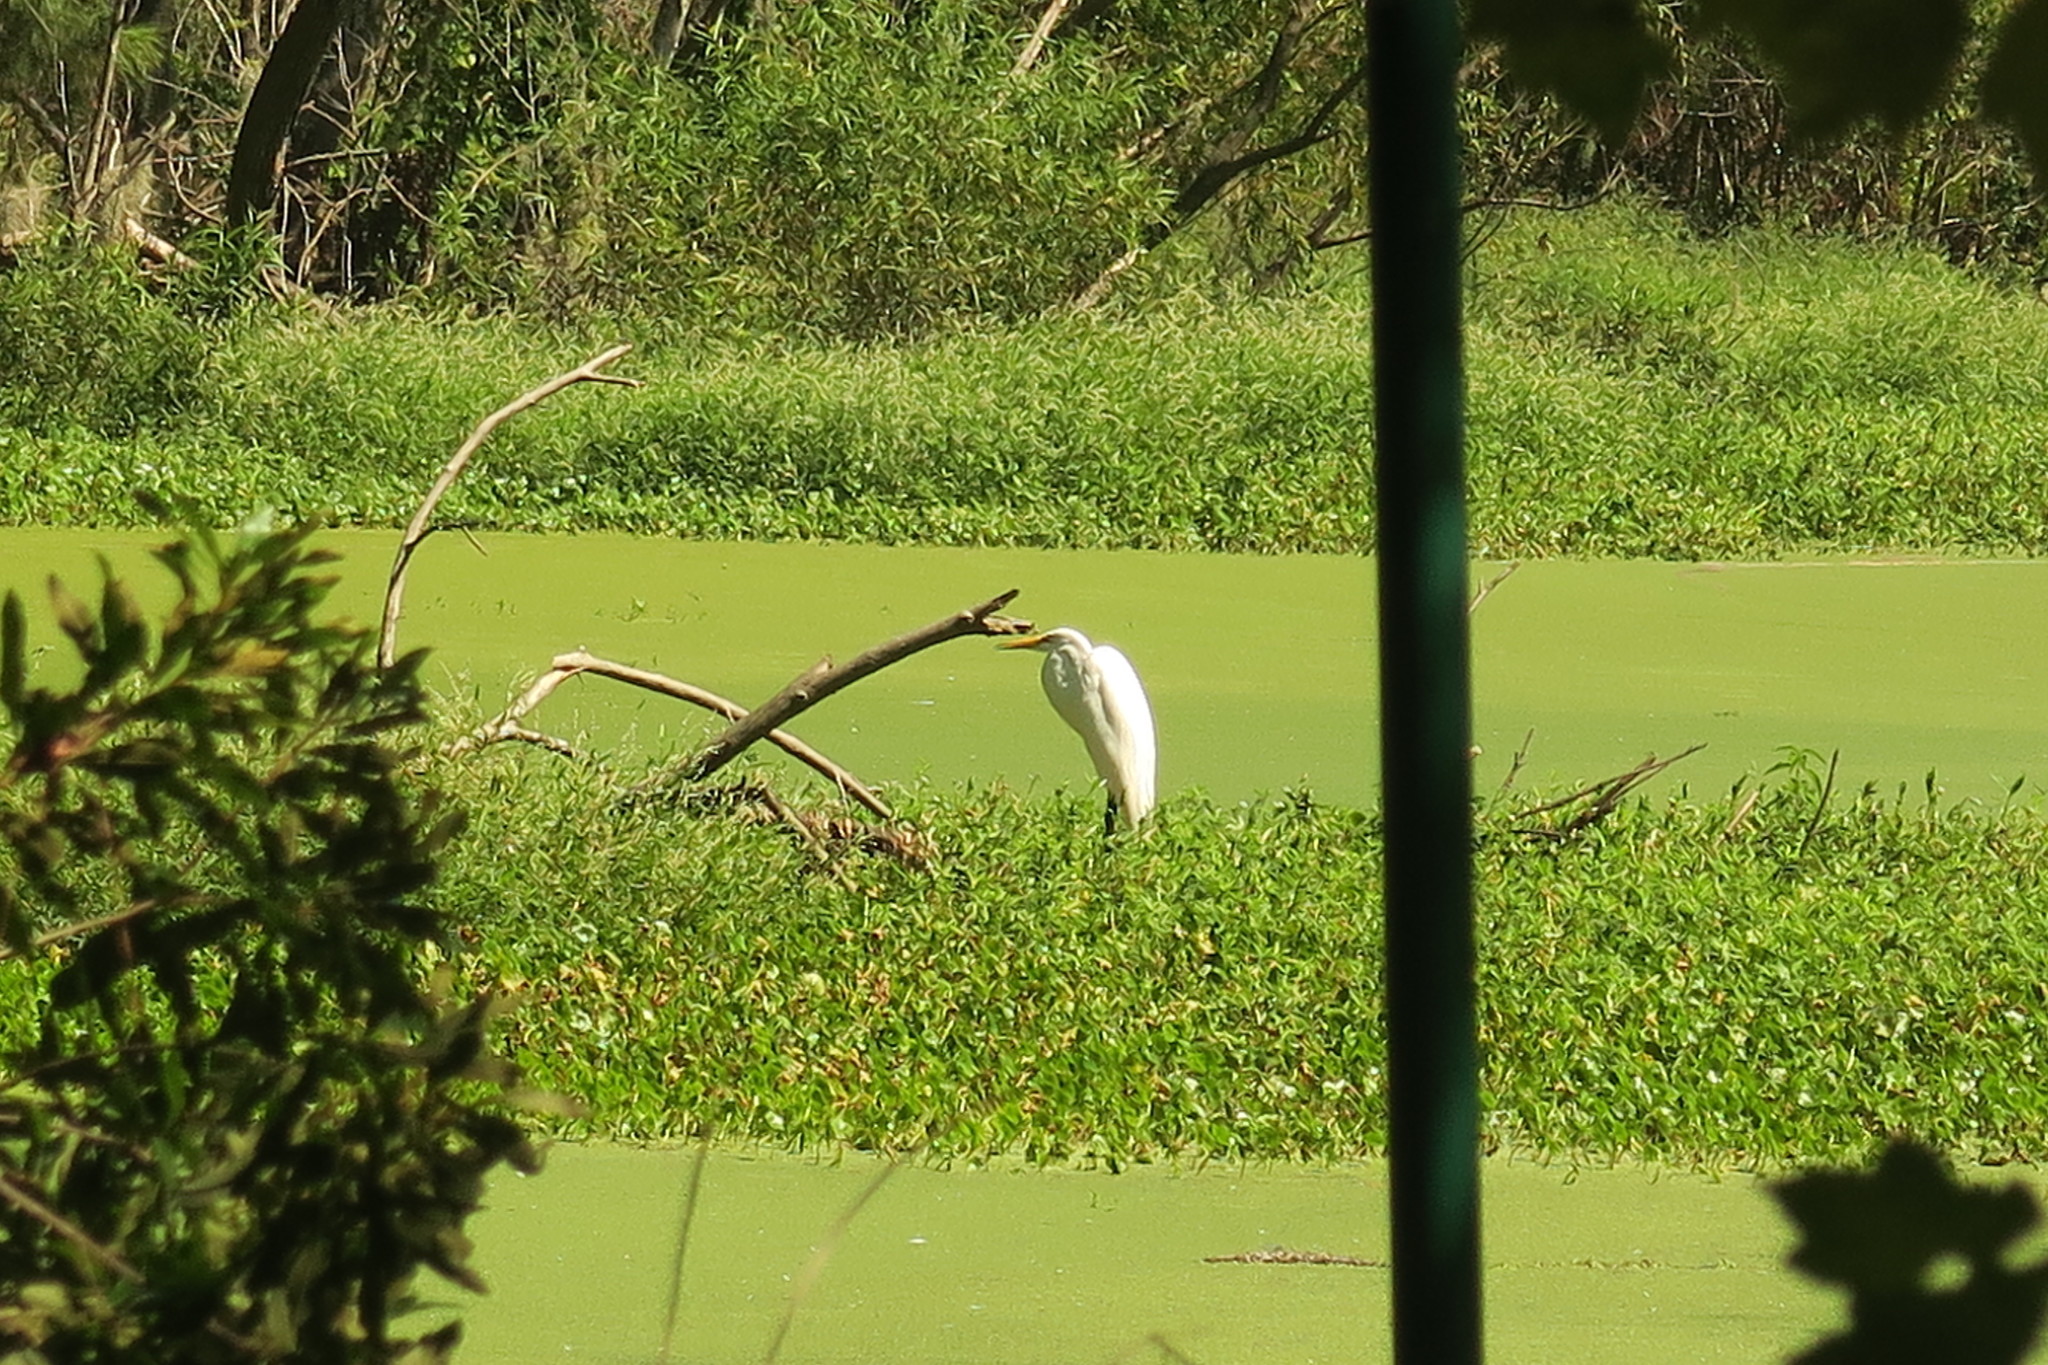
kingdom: Animalia
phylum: Chordata
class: Aves
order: Pelecaniformes
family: Ardeidae
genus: Ardea
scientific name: Ardea alba
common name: Great egret
